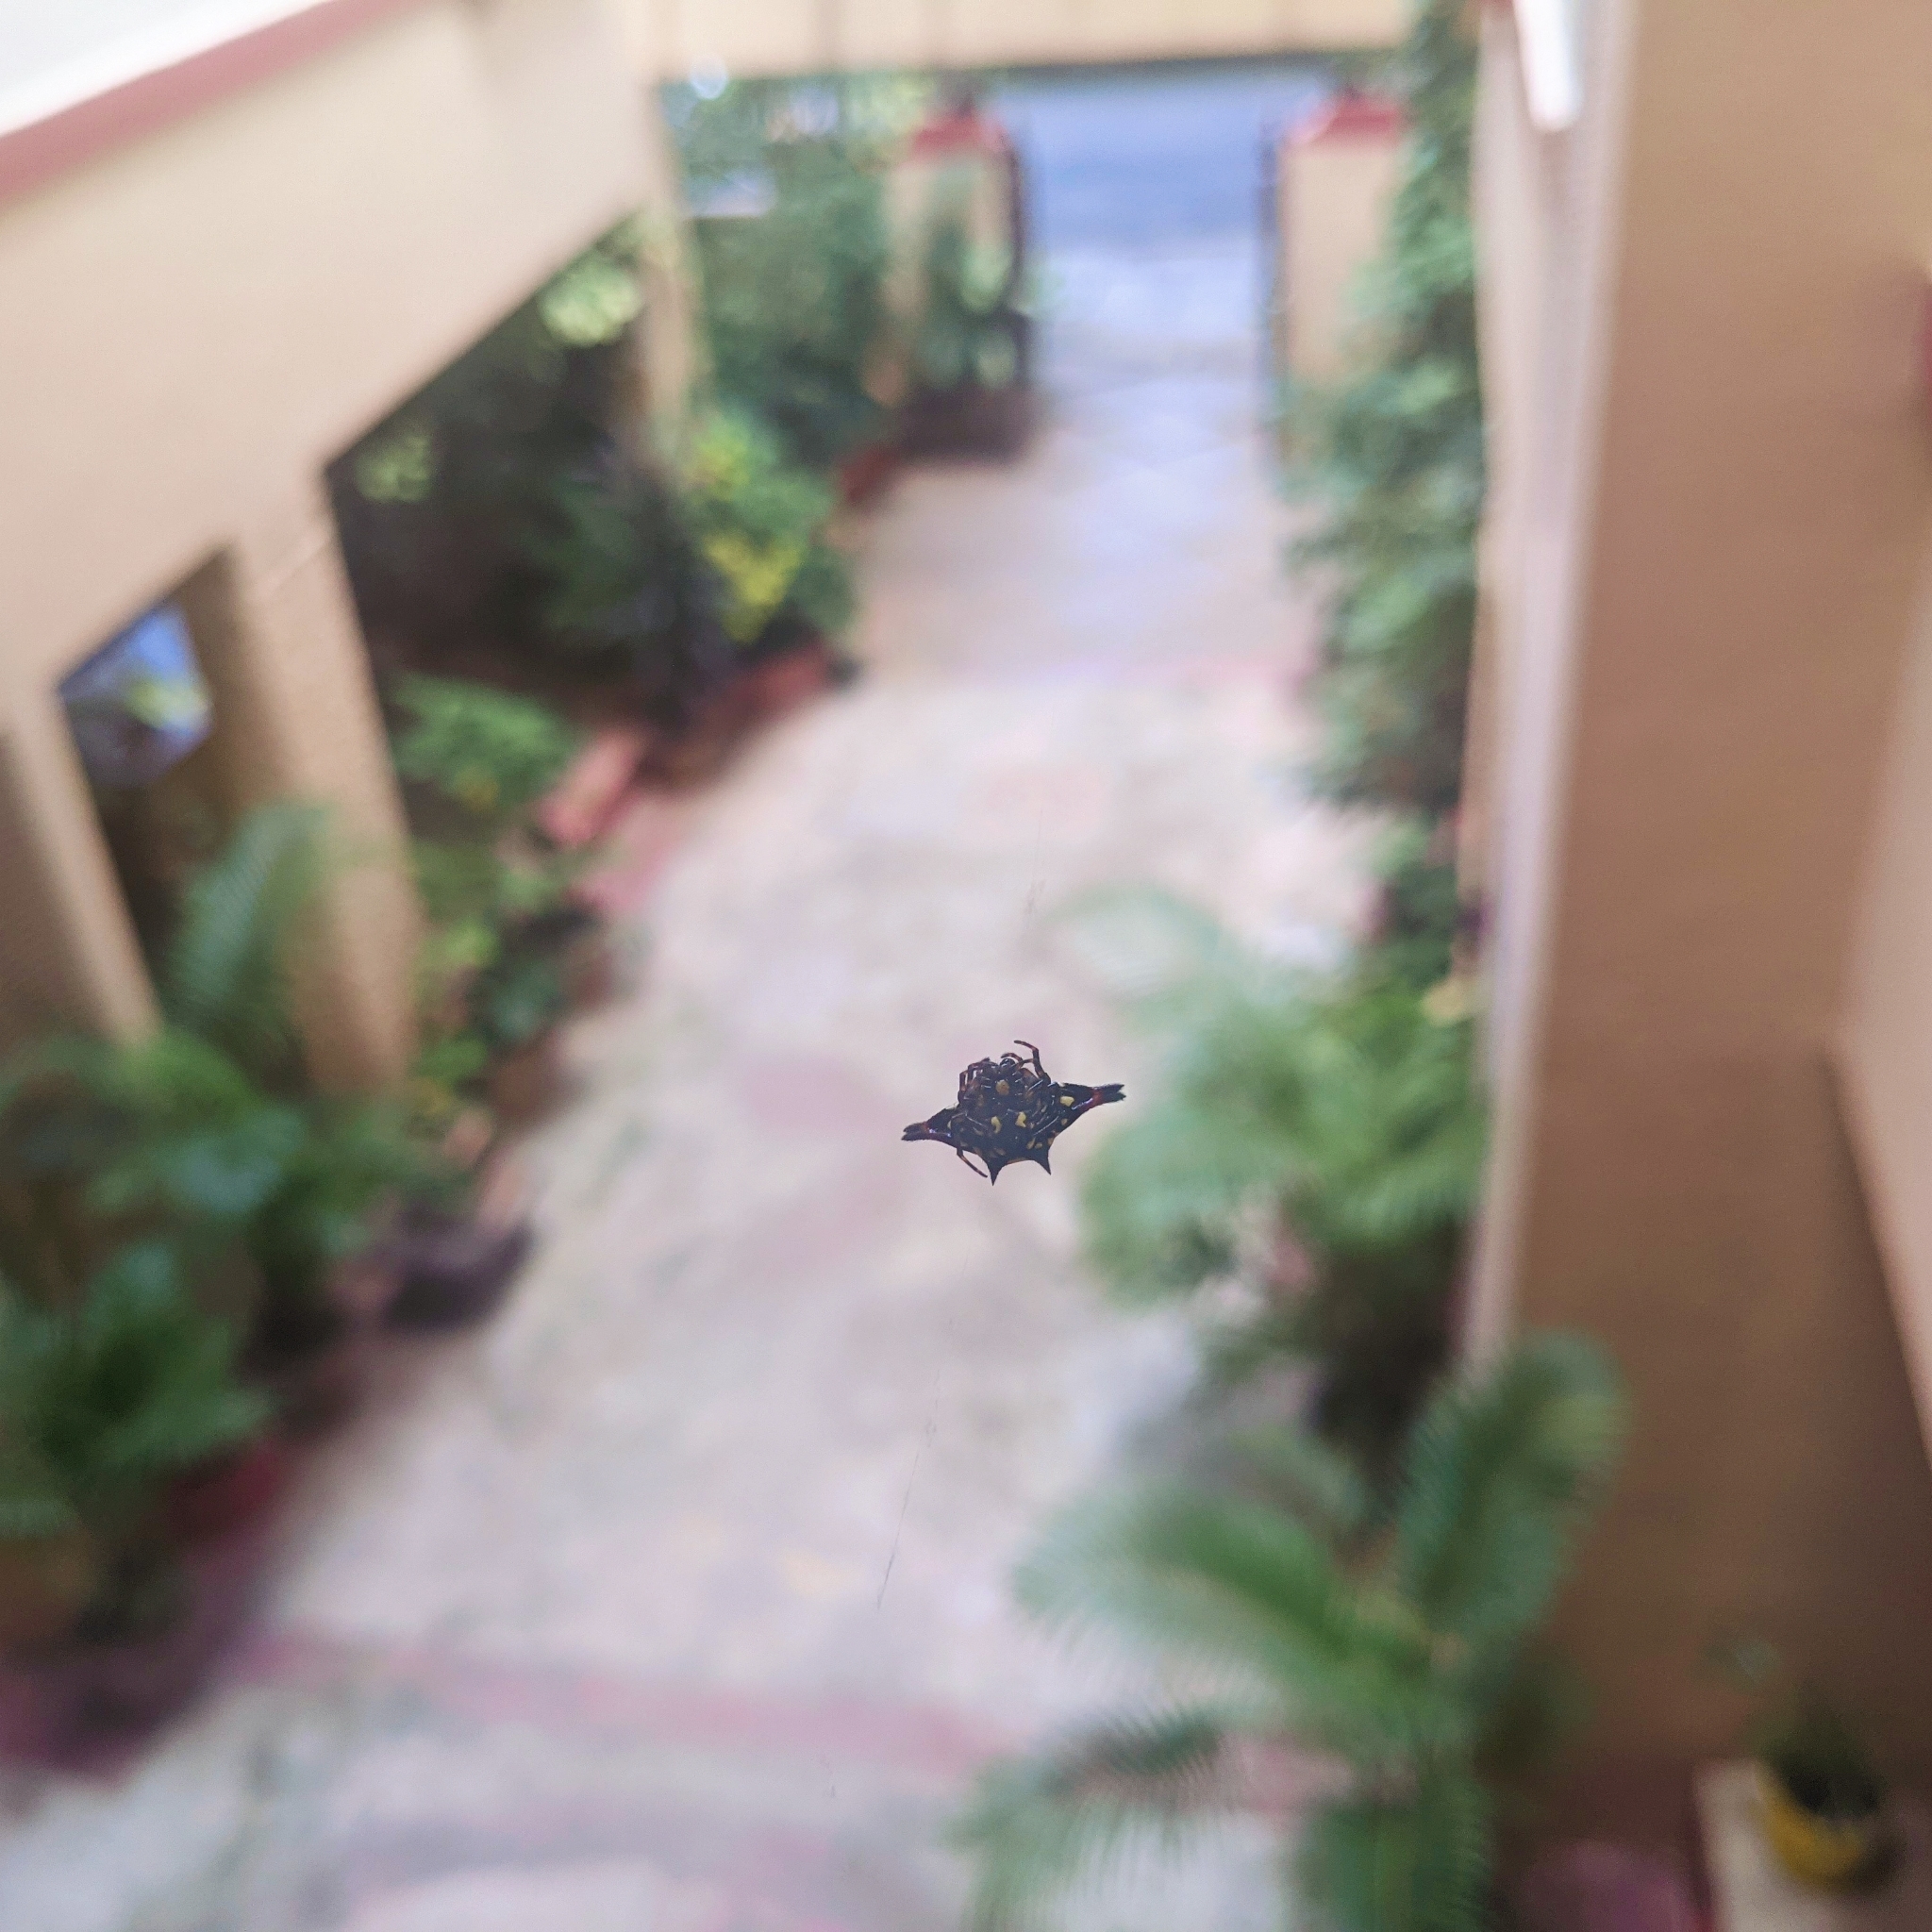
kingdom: Animalia
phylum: Arthropoda
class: Arachnida
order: Araneae
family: Araneidae
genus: Gasteracantha
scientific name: Gasteracantha geminata
